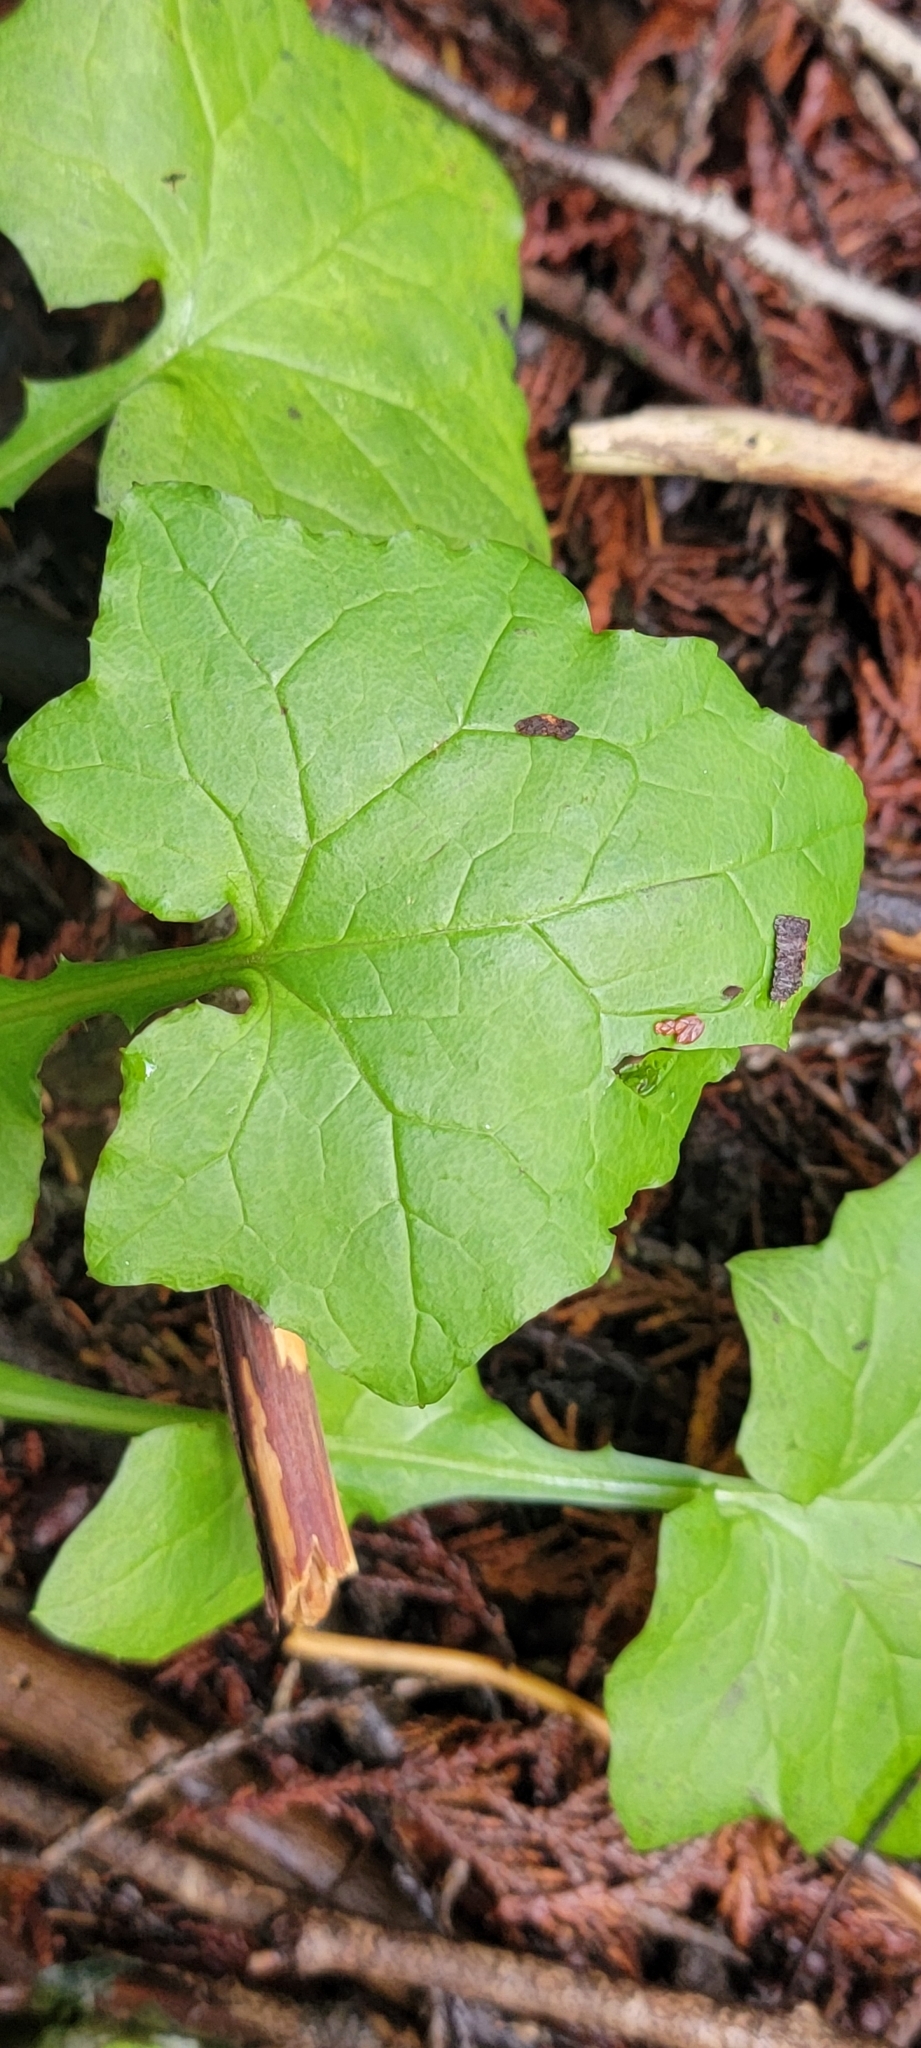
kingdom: Plantae
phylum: Tracheophyta
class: Magnoliopsida
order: Asterales
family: Asteraceae
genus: Mycelis
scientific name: Mycelis muralis
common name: Wall lettuce
